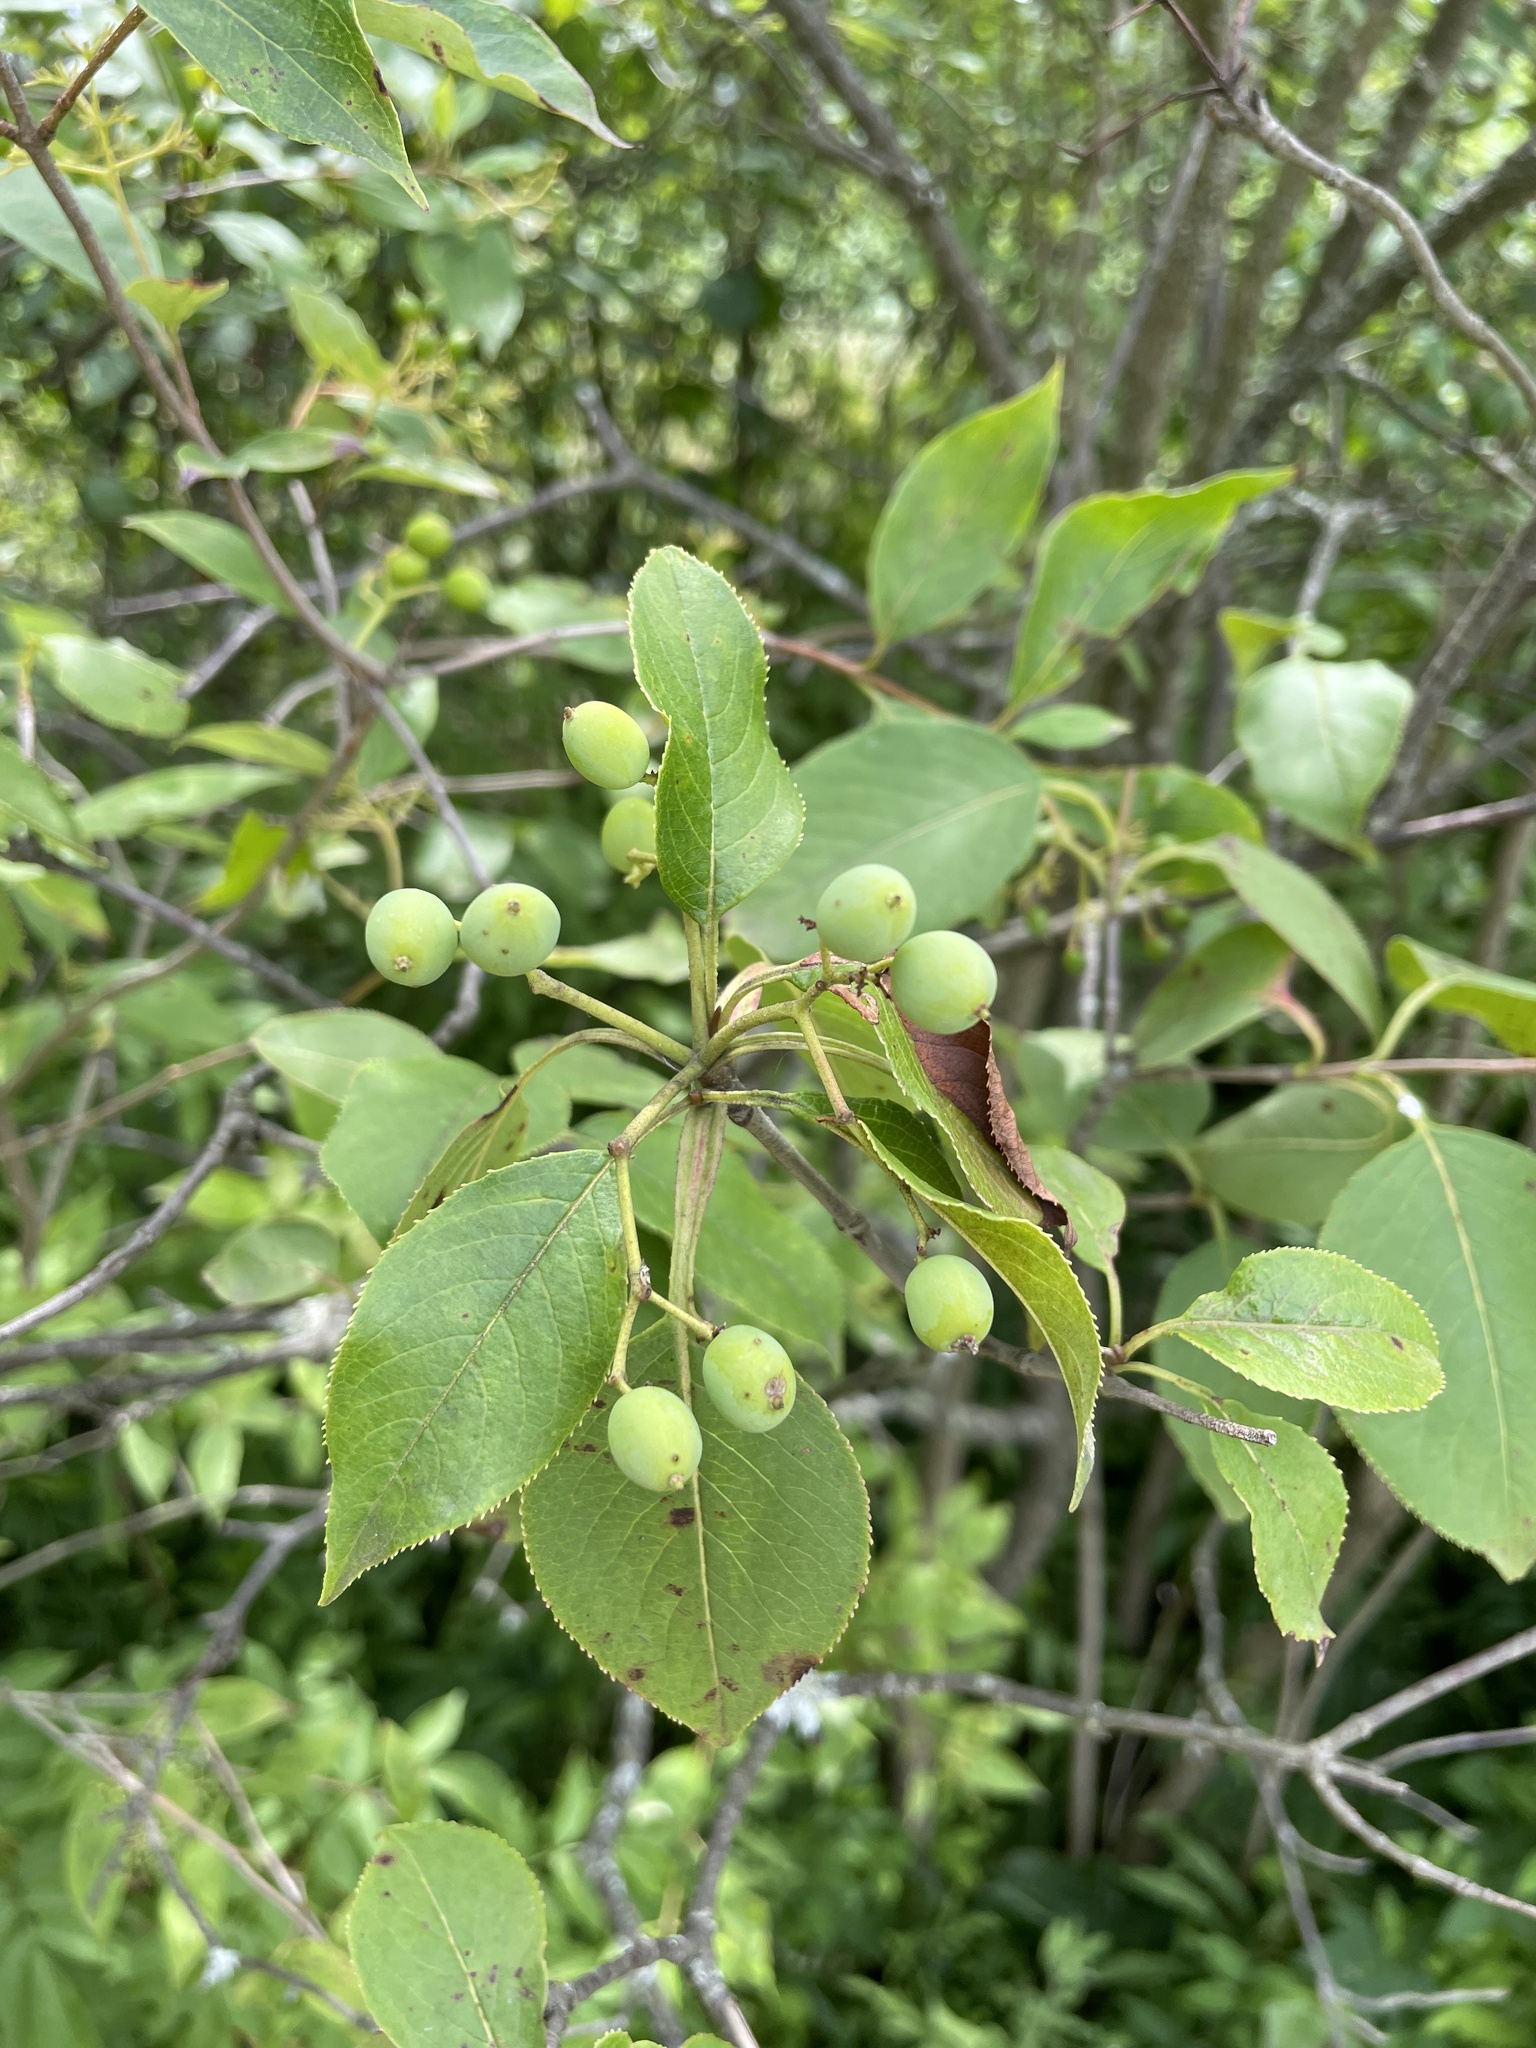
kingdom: Plantae
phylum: Tracheophyta
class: Magnoliopsida
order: Dipsacales
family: Viburnaceae
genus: Viburnum
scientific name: Viburnum lentago
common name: Black haw
